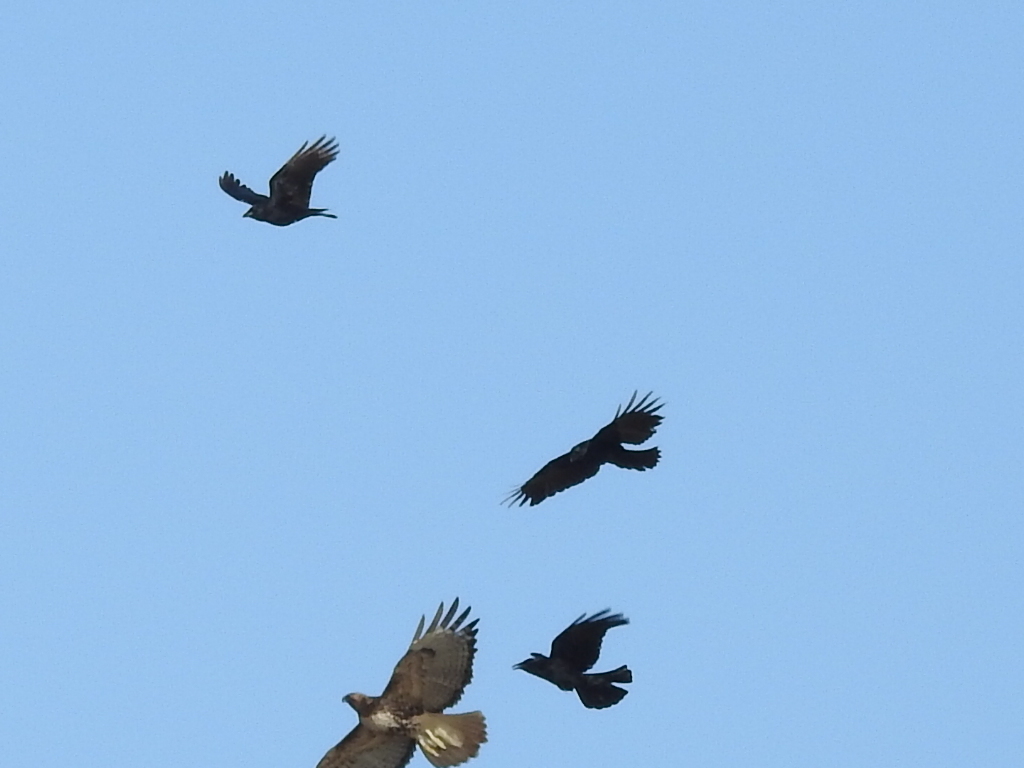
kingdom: Animalia
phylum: Chordata
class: Aves
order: Passeriformes
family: Corvidae
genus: Corvus
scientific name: Corvus brachyrhynchos
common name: American crow
